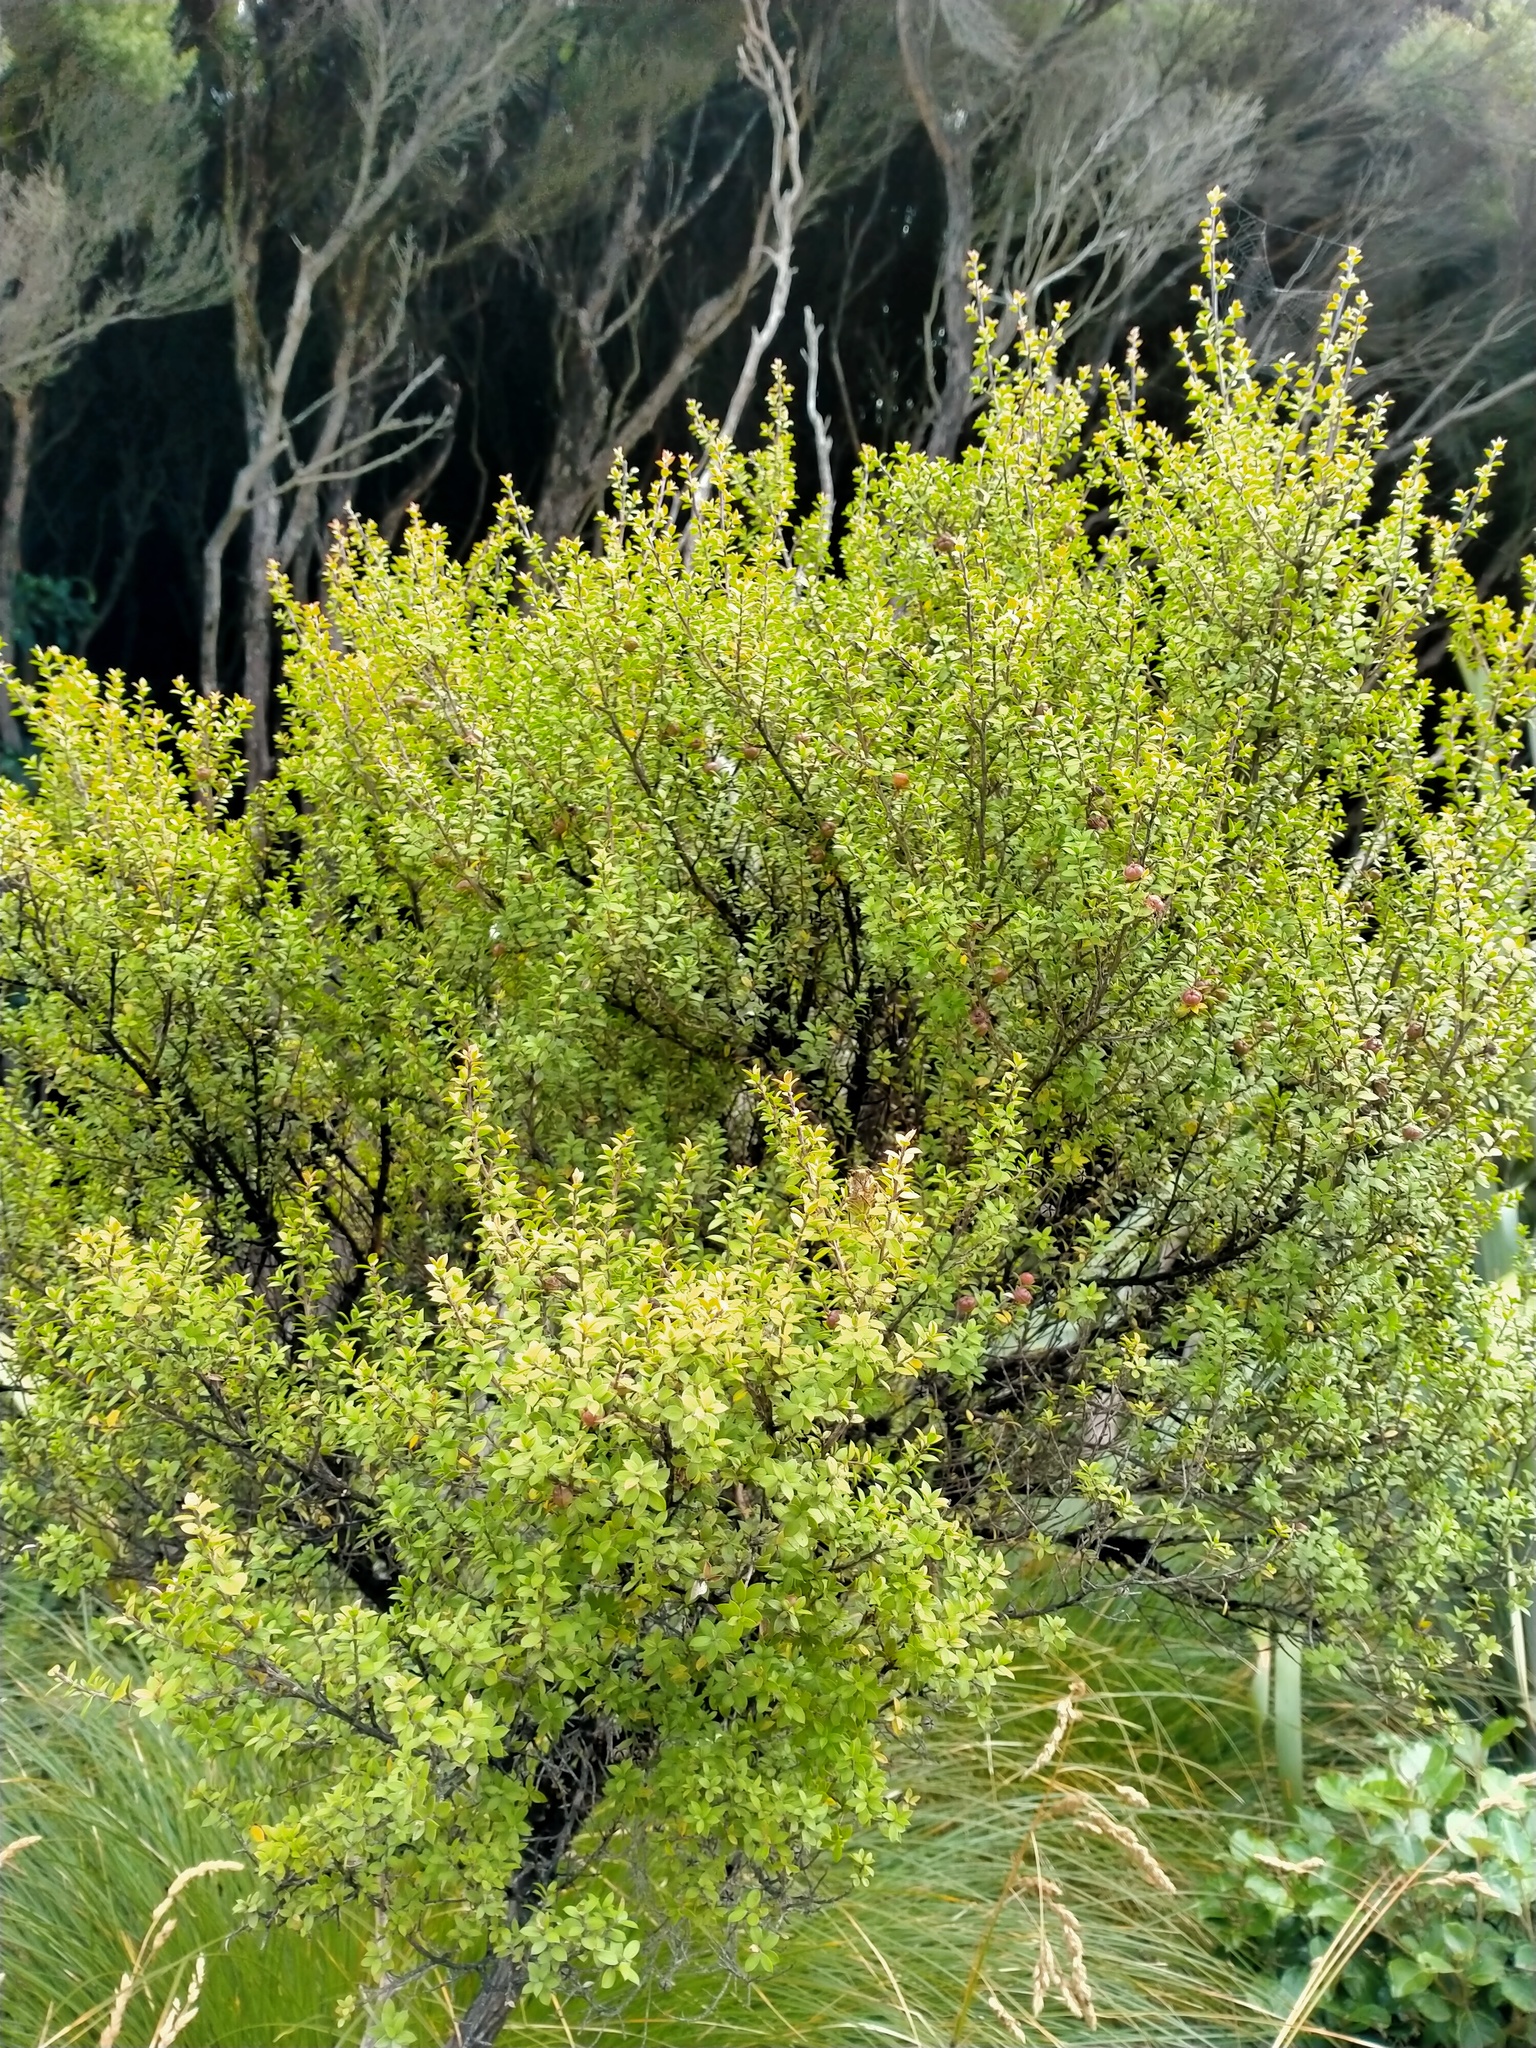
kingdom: Plantae
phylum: Tracheophyta
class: Magnoliopsida
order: Myrtales
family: Myrtaceae
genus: Leptospermum
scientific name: Leptospermum scoparium
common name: Broom tea-tree
